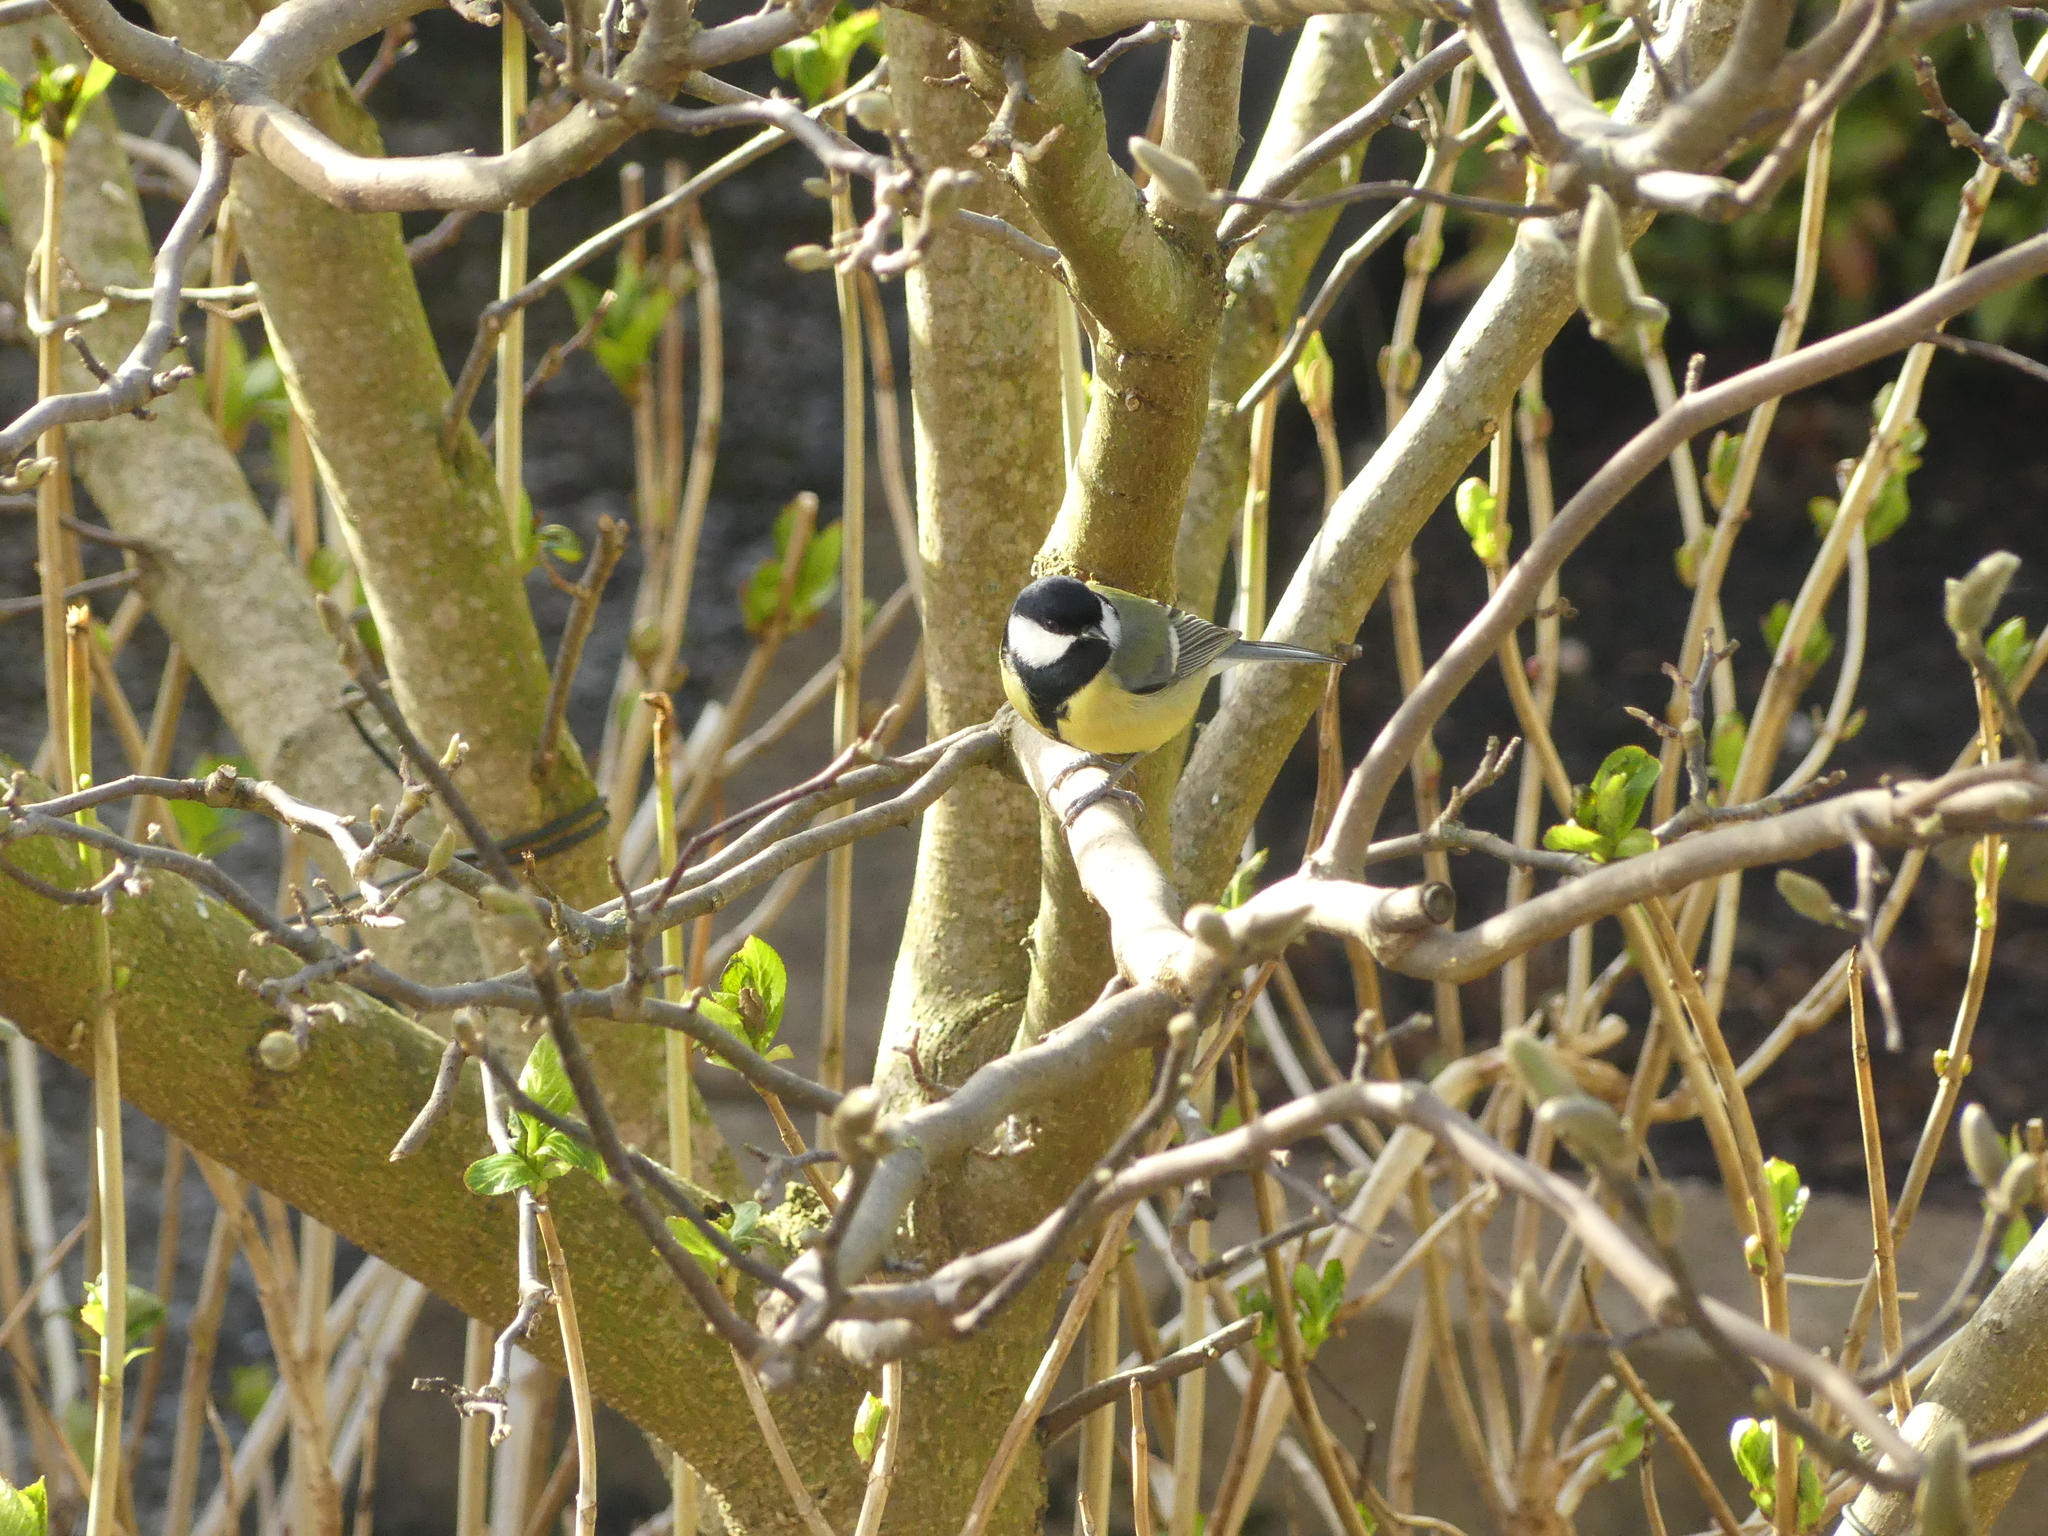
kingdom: Animalia
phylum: Chordata
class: Aves
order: Passeriformes
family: Paridae
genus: Parus
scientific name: Parus major
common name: Great tit
